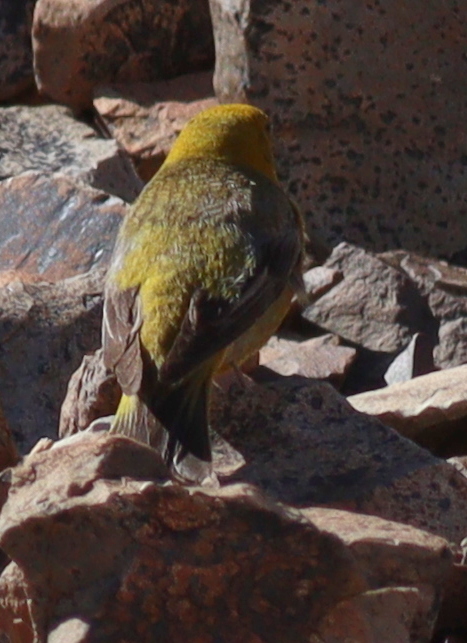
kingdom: Animalia
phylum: Chordata
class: Aves
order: Passeriformes
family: Thraupidae
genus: Sicalis
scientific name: Sicalis auriventris
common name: Greater yellow finch
